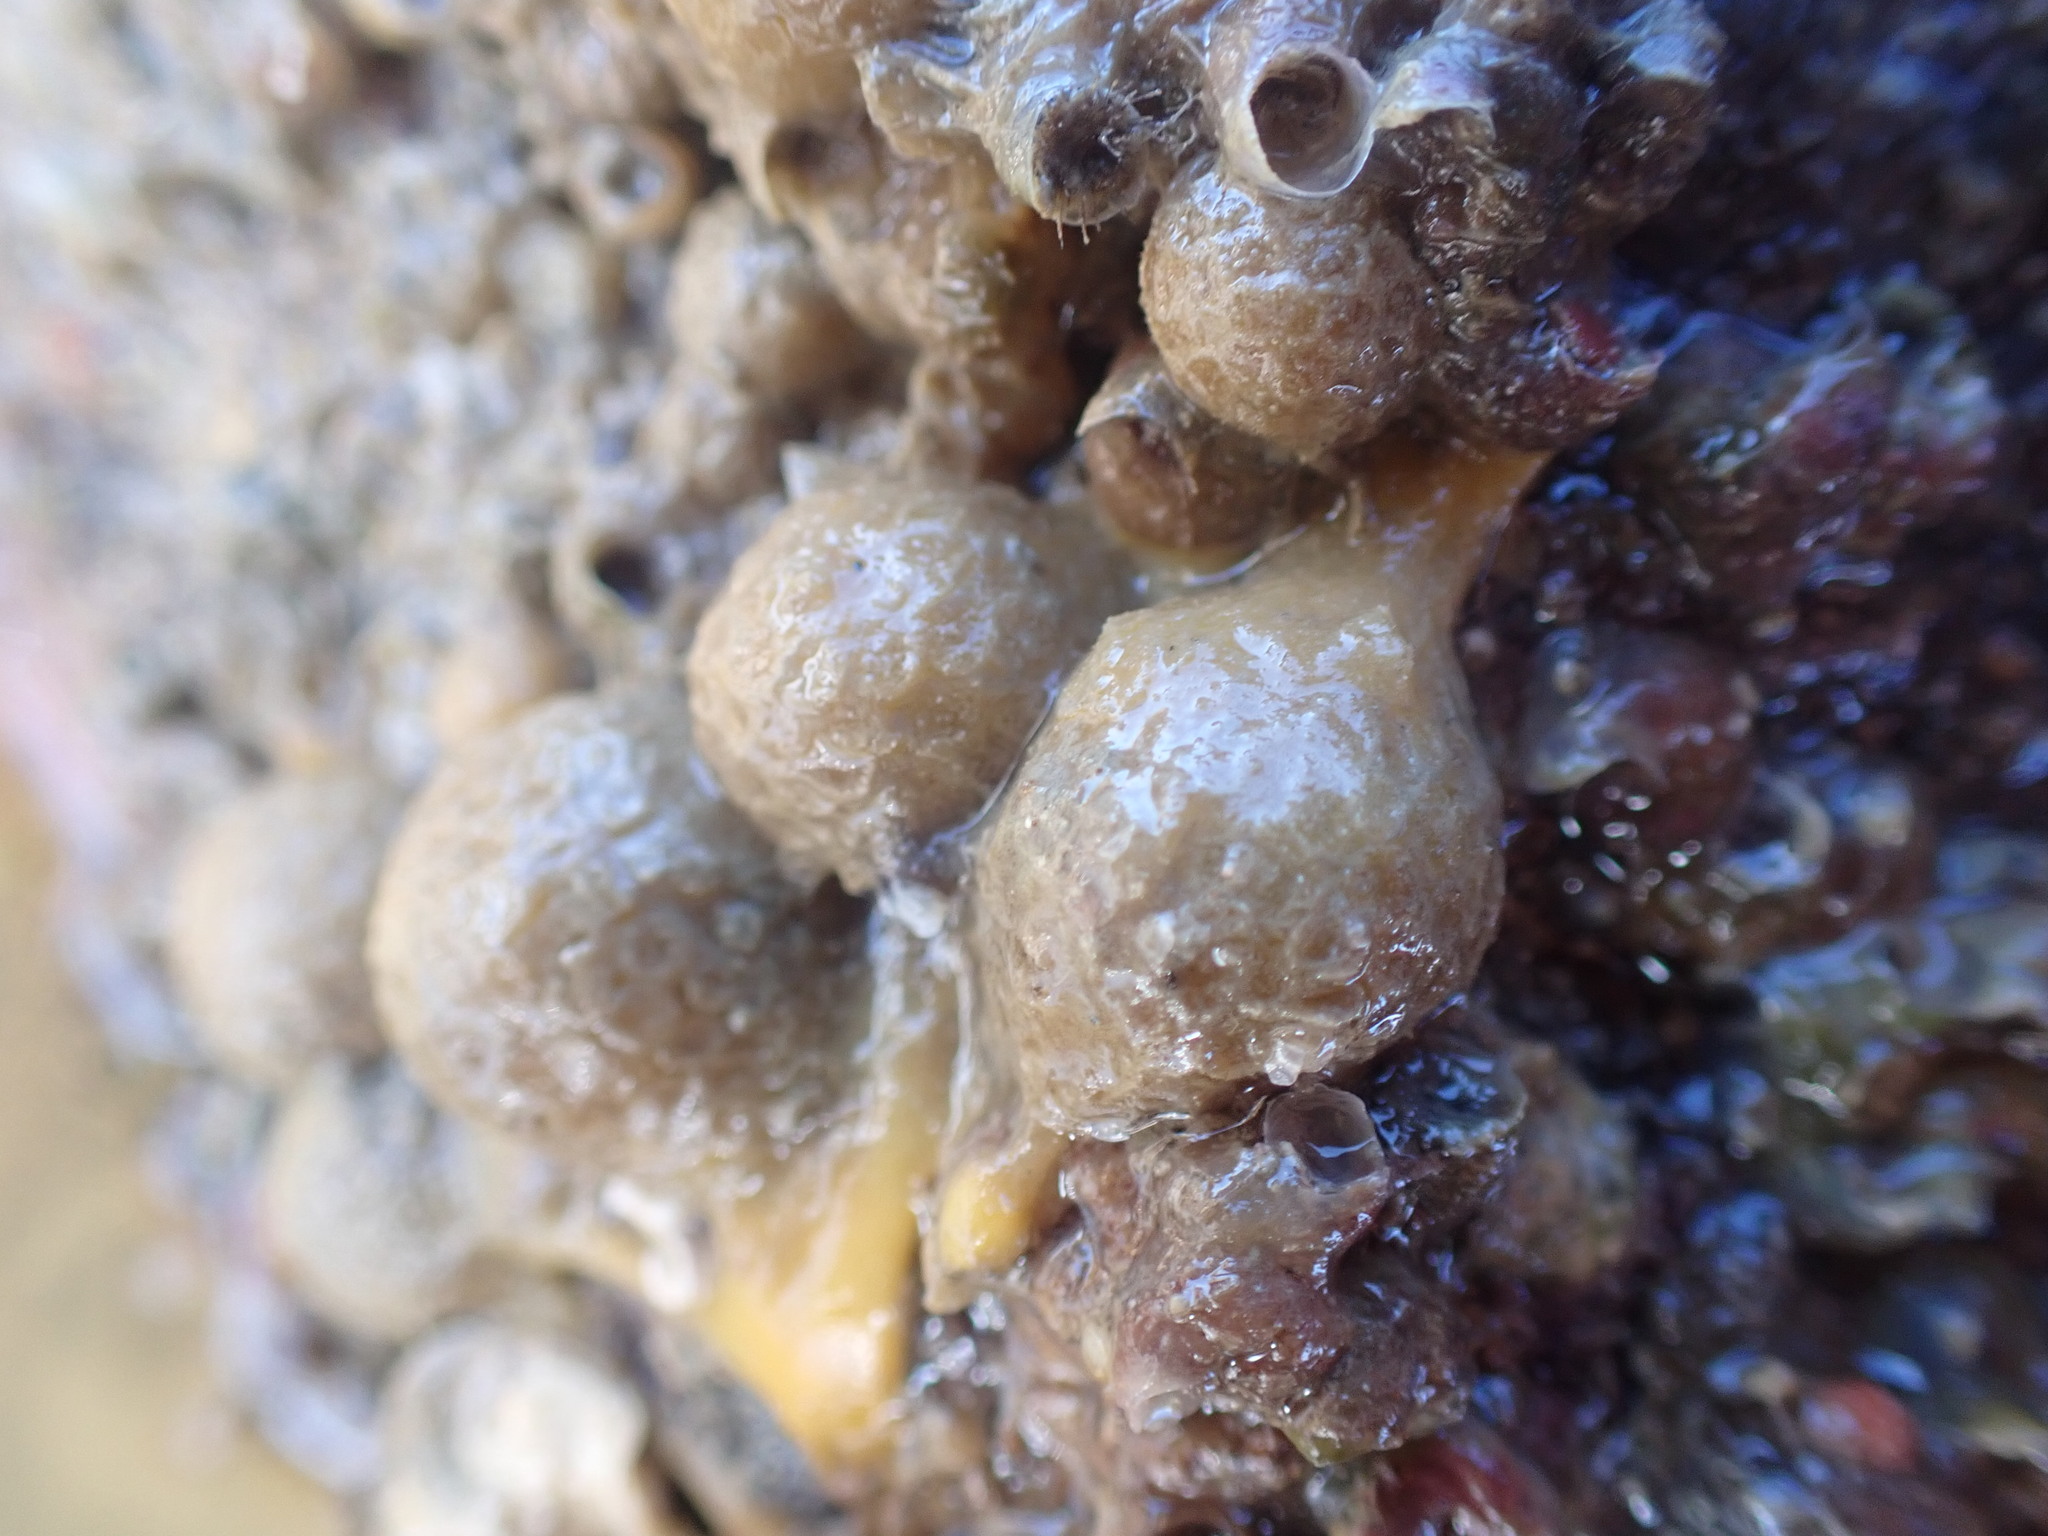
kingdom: Animalia
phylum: Porifera
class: Demospongiae
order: Tethyida
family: Tethyidae
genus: Tethya
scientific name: Tethya stolonifera
